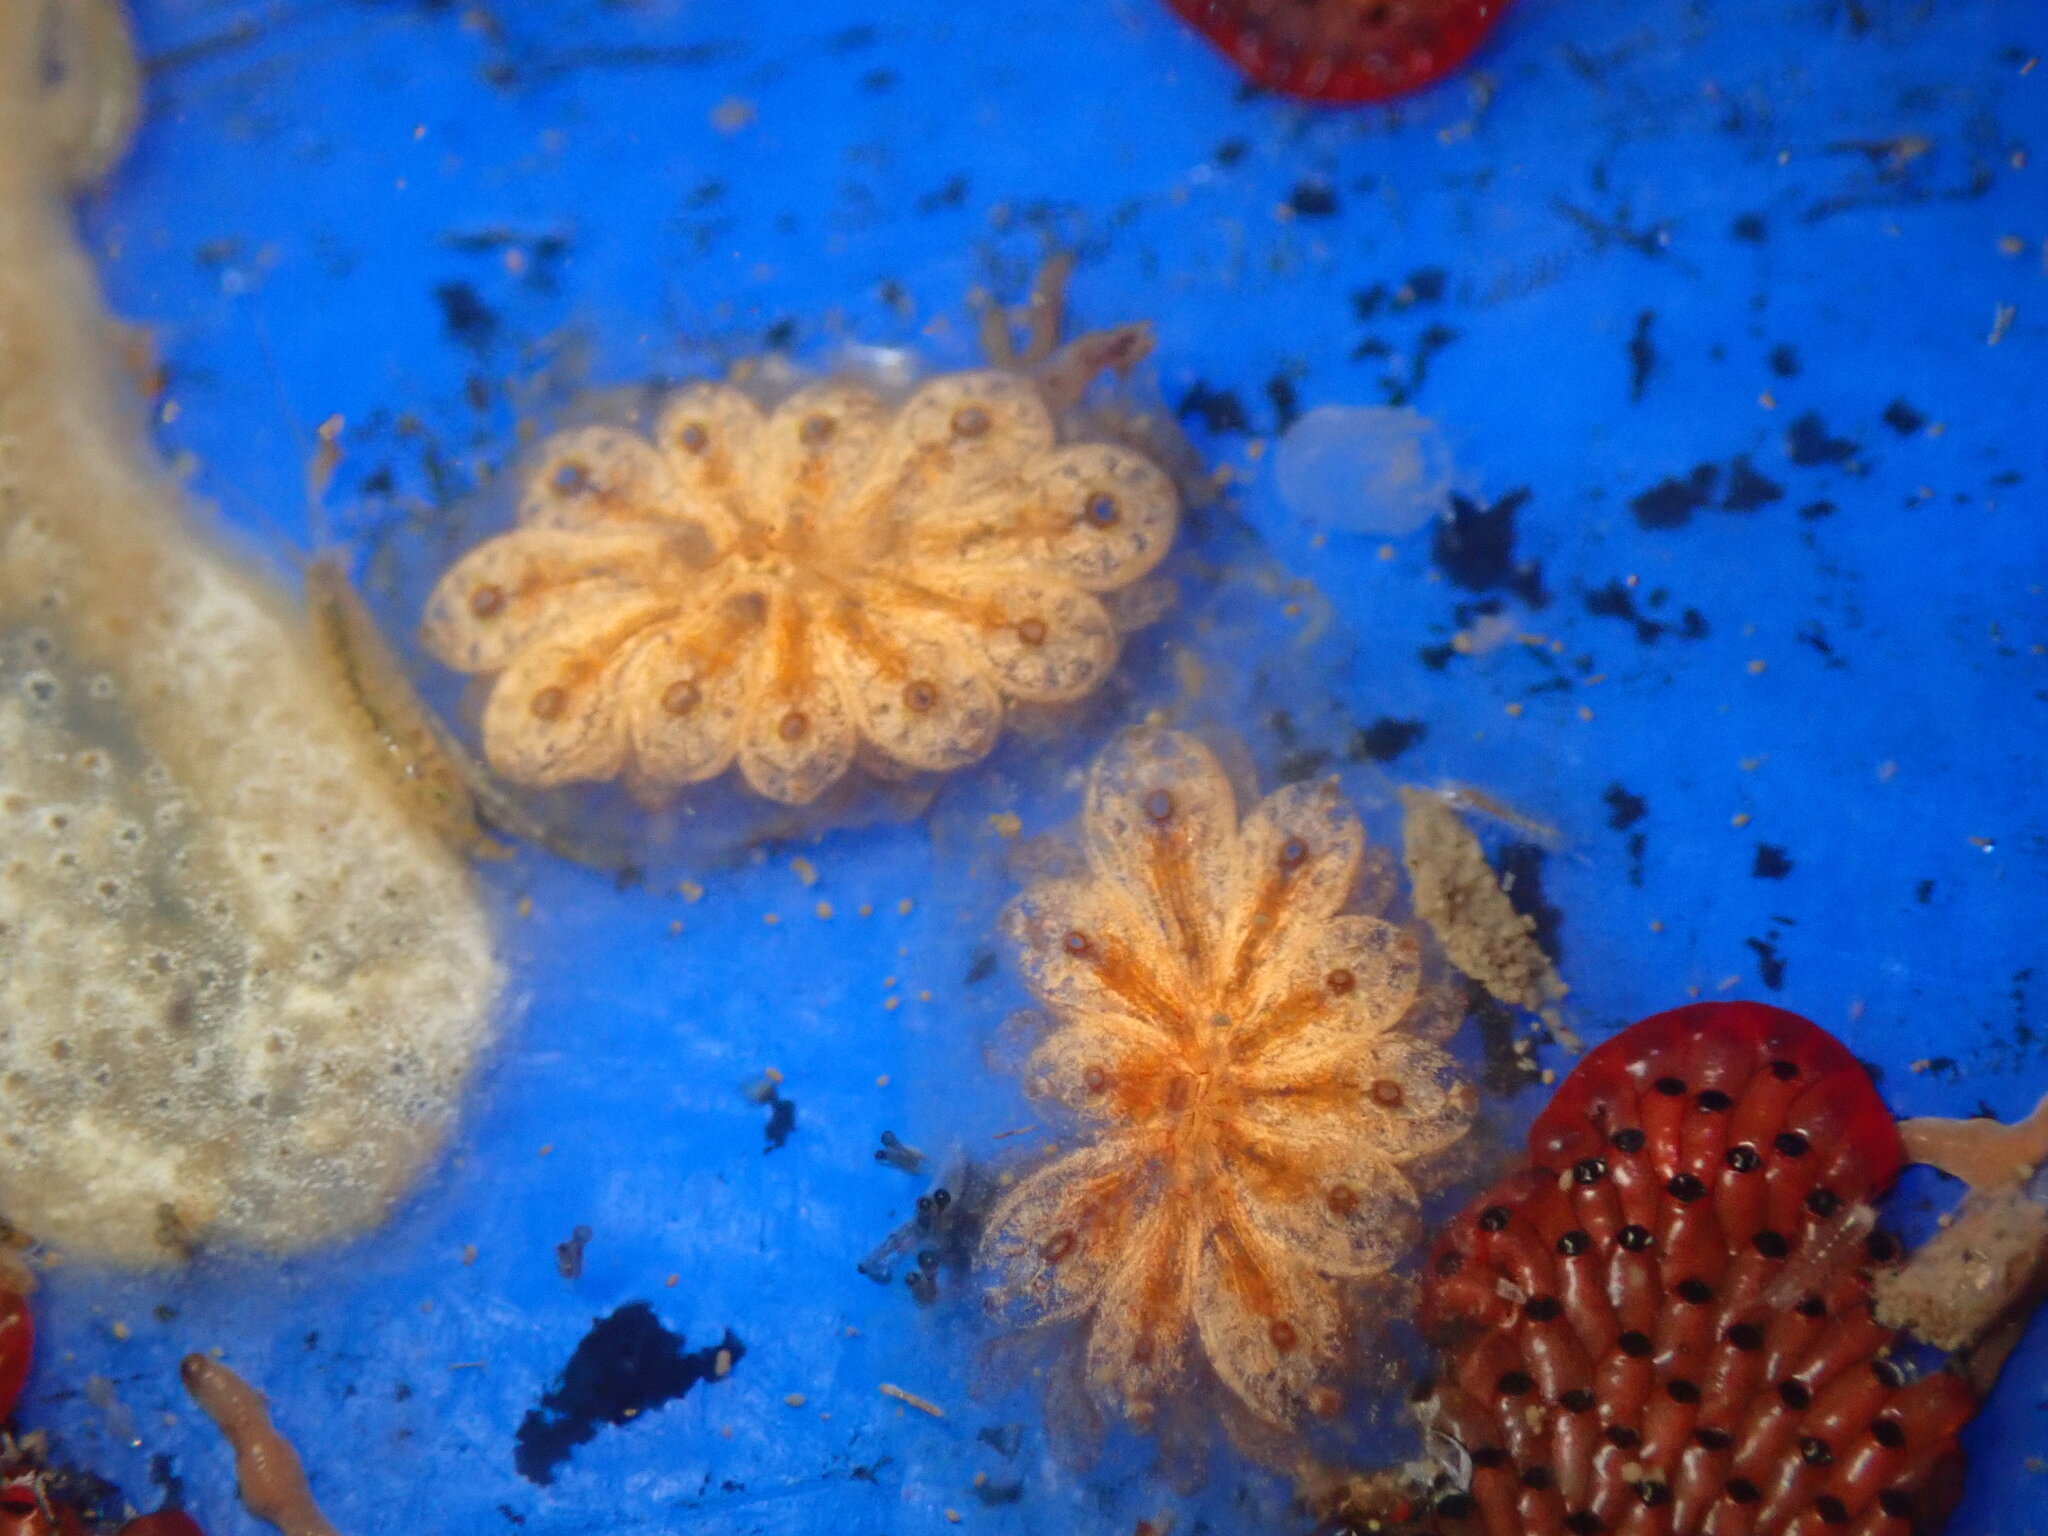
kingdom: Animalia
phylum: Chordata
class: Ascidiacea
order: Stolidobranchia
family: Styelidae
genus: Botryllus
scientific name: Botryllus schlosseri
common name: Golden star tunicate
